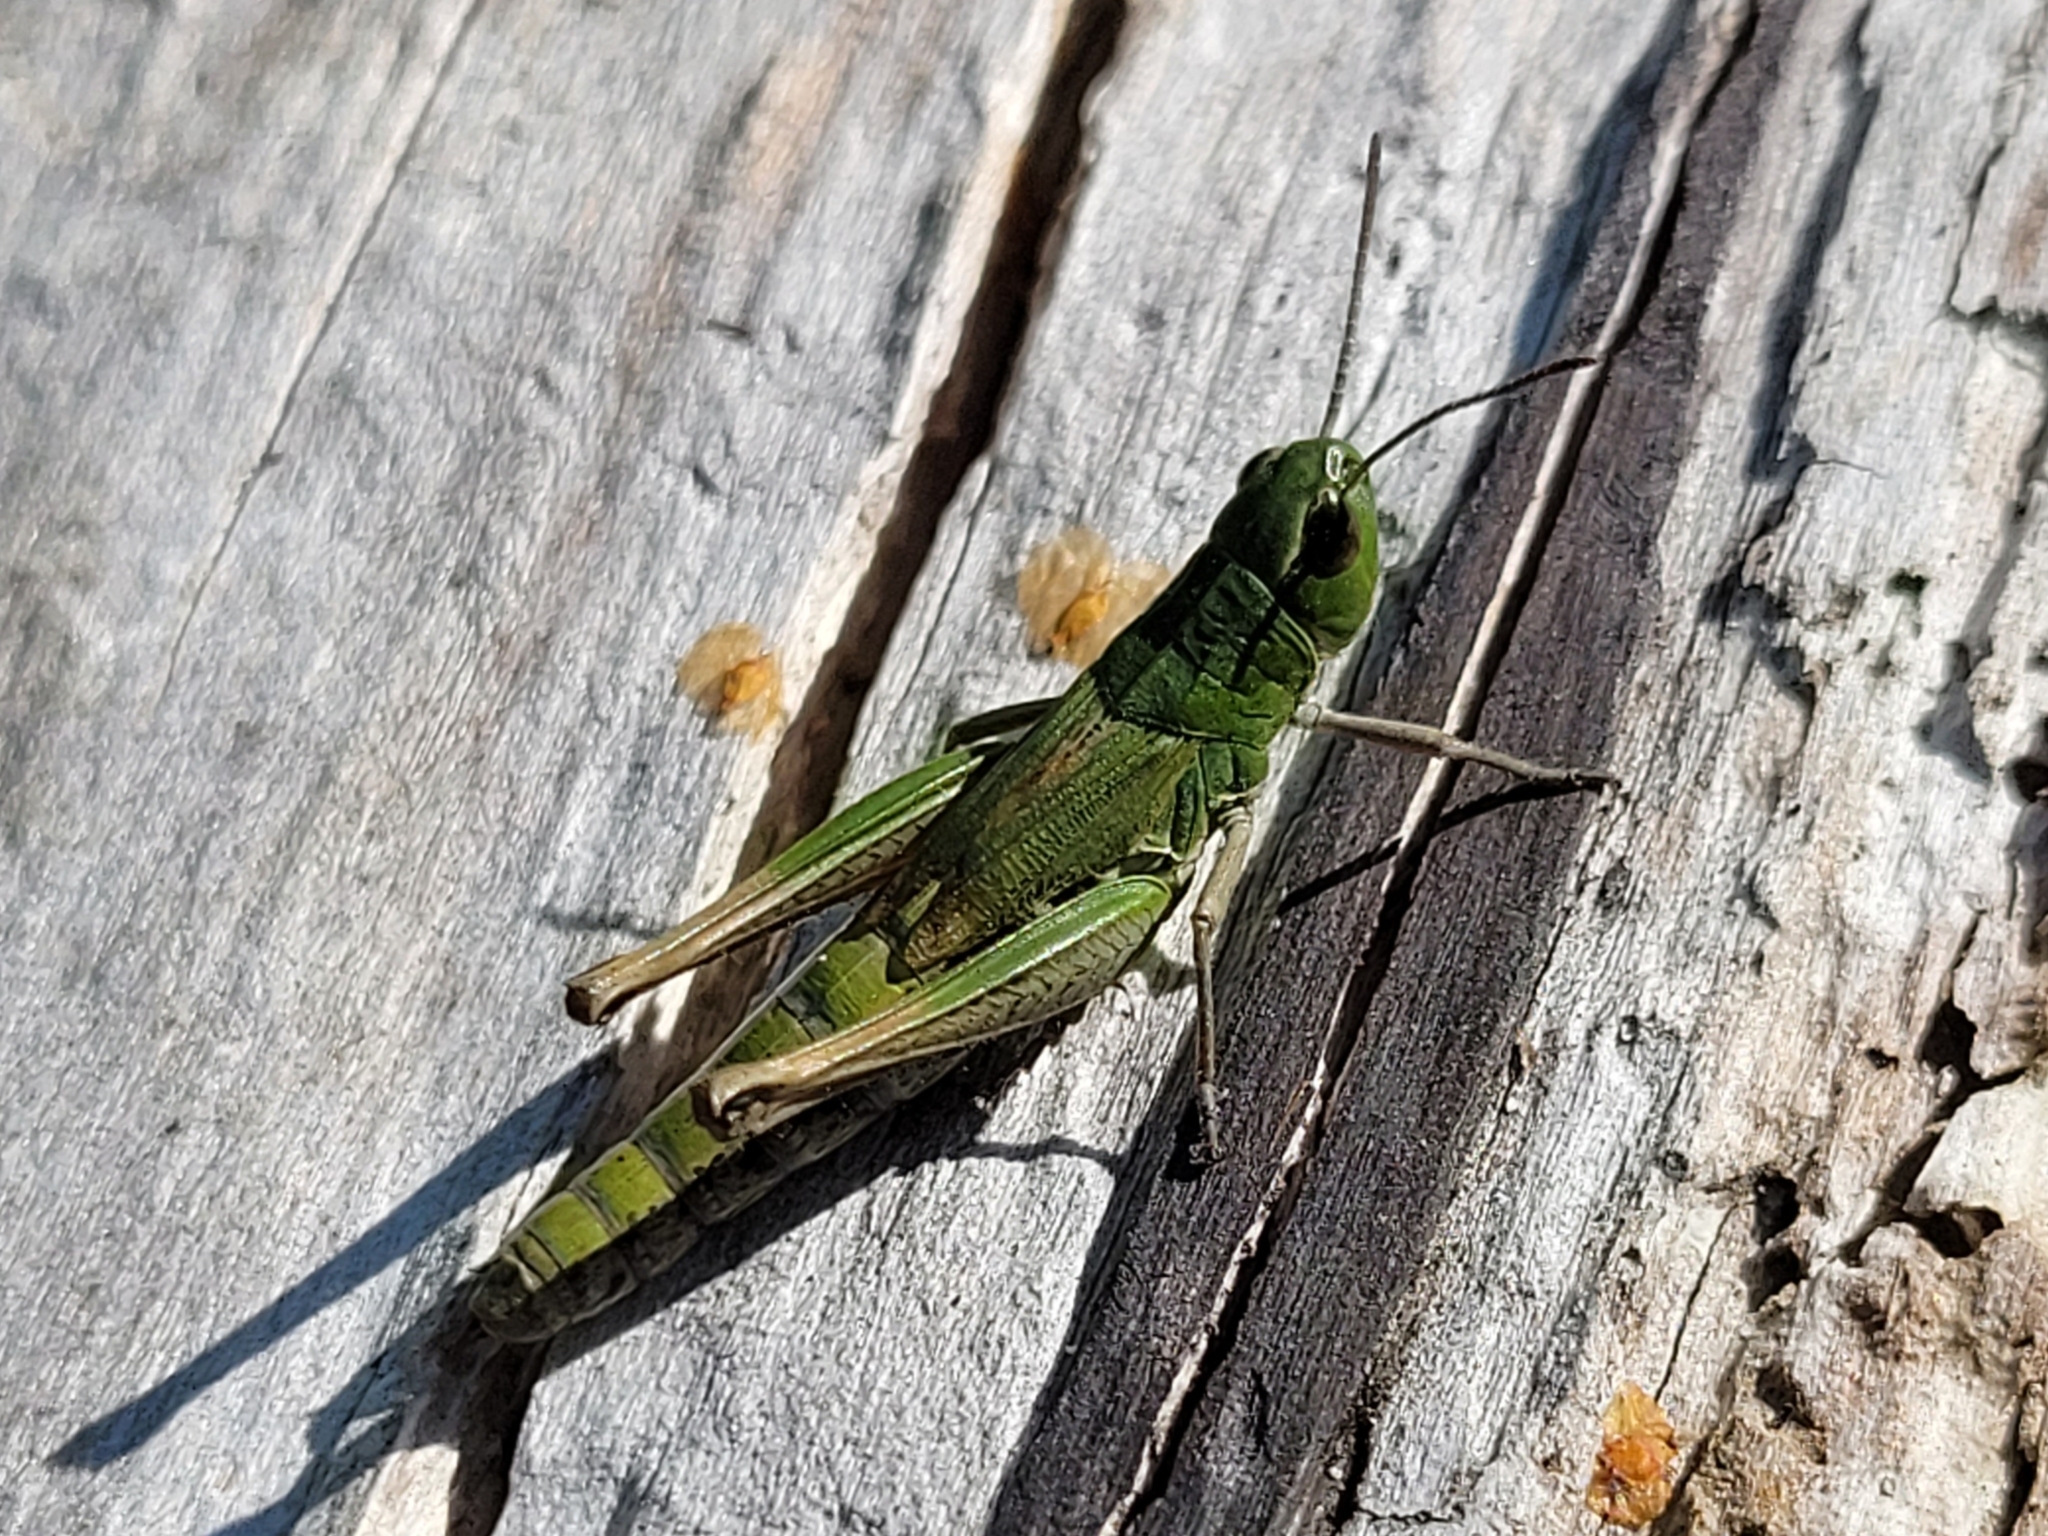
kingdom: Animalia
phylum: Arthropoda
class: Insecta
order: Orthoptera
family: Acrididae
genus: Pseudochorthippus
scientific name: Pseudochorthippus parallelus
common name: Meadow grasshopper
